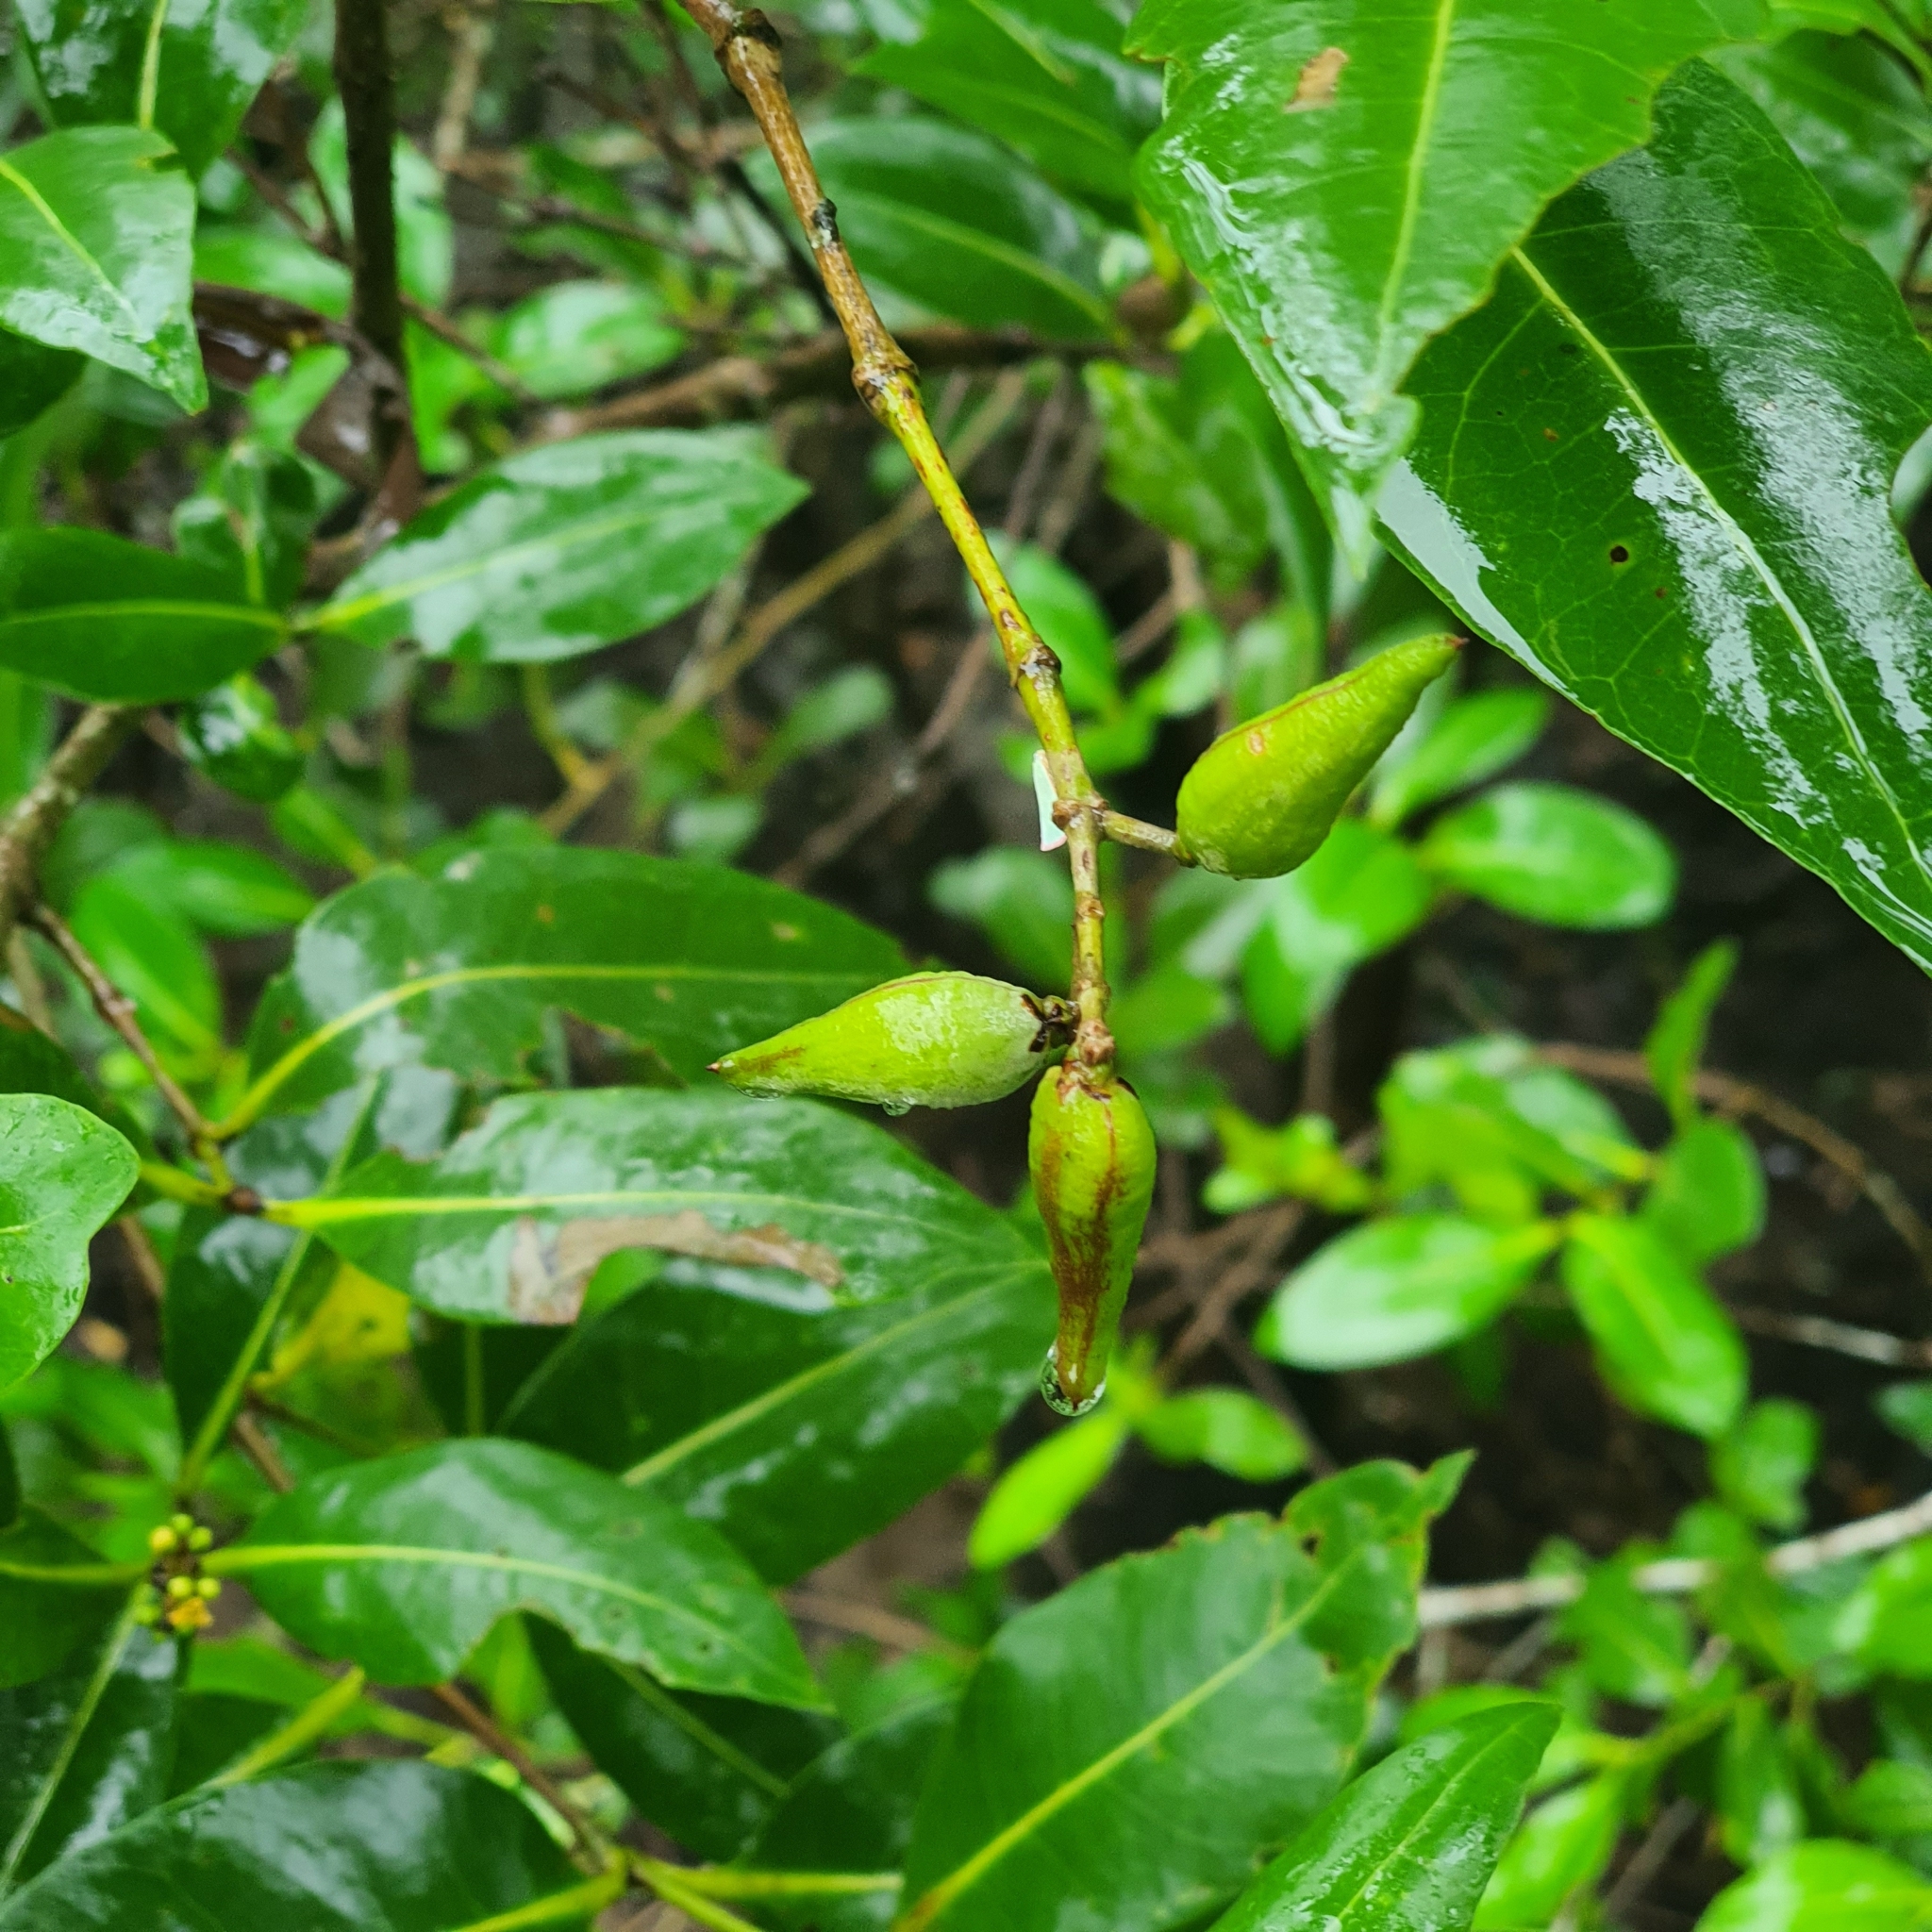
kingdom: Plantae
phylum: Tracheophyta
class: Magnoliopsida
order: Lamiales
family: Acanthaceae
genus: Avicennia
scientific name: Avicennia alba
